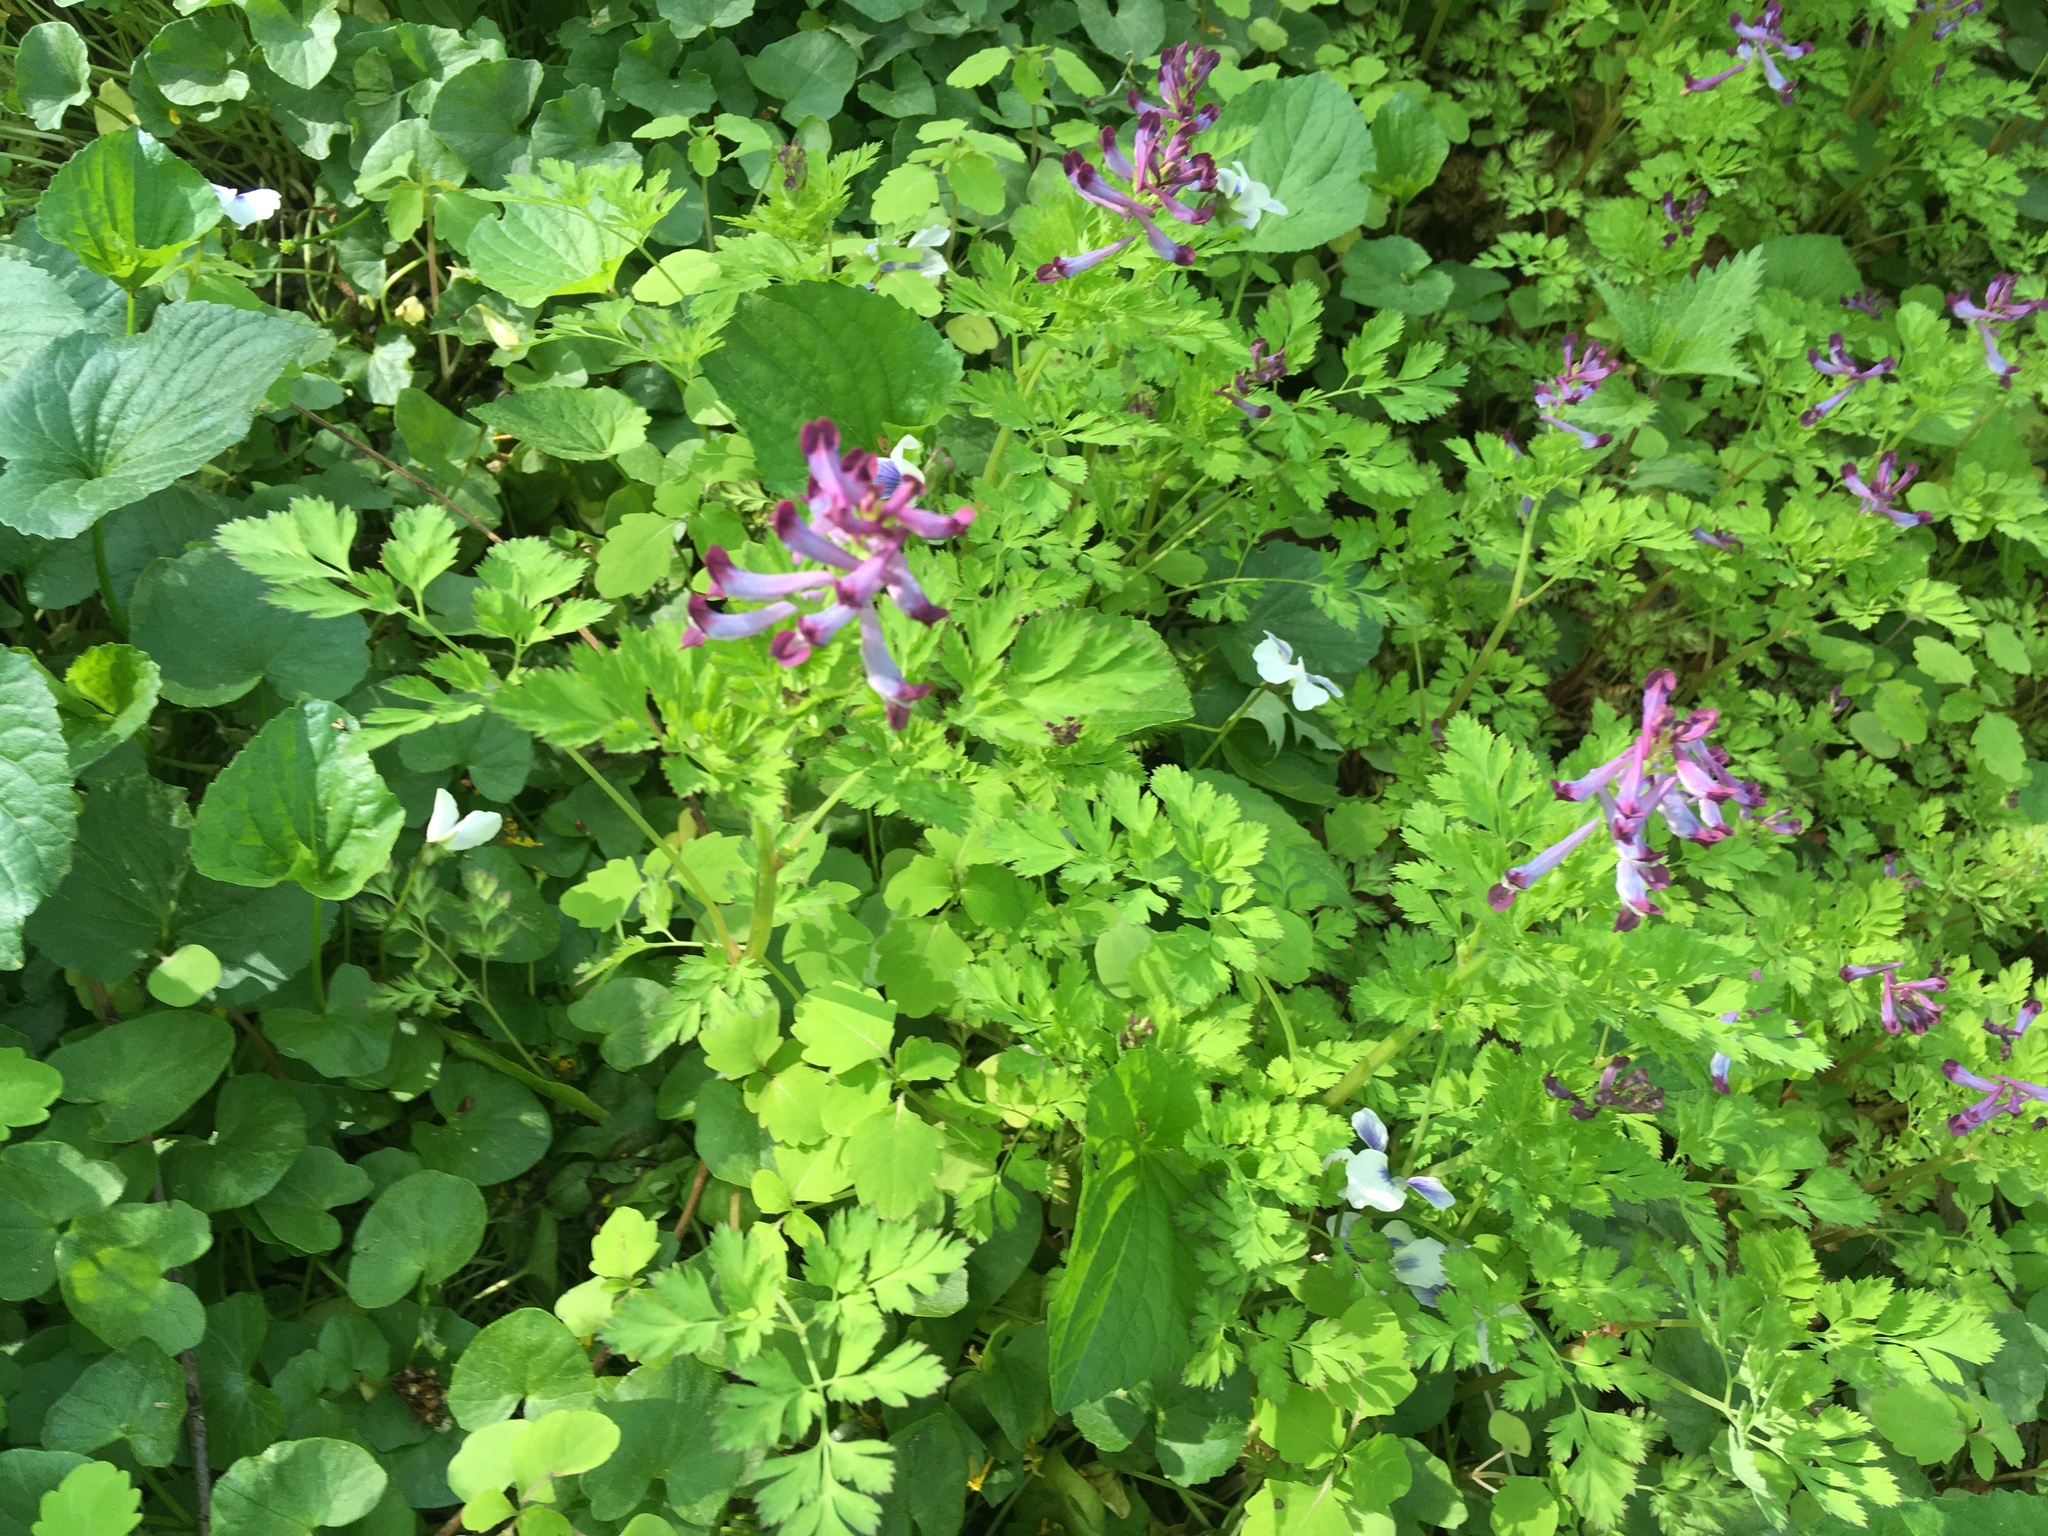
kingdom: Plantae
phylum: Tracheophyta
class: Magnoliopsida
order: Ranunculales
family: Papaveraceae
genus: Corydalis
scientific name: Corydalis incisa
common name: Incised fumewort
